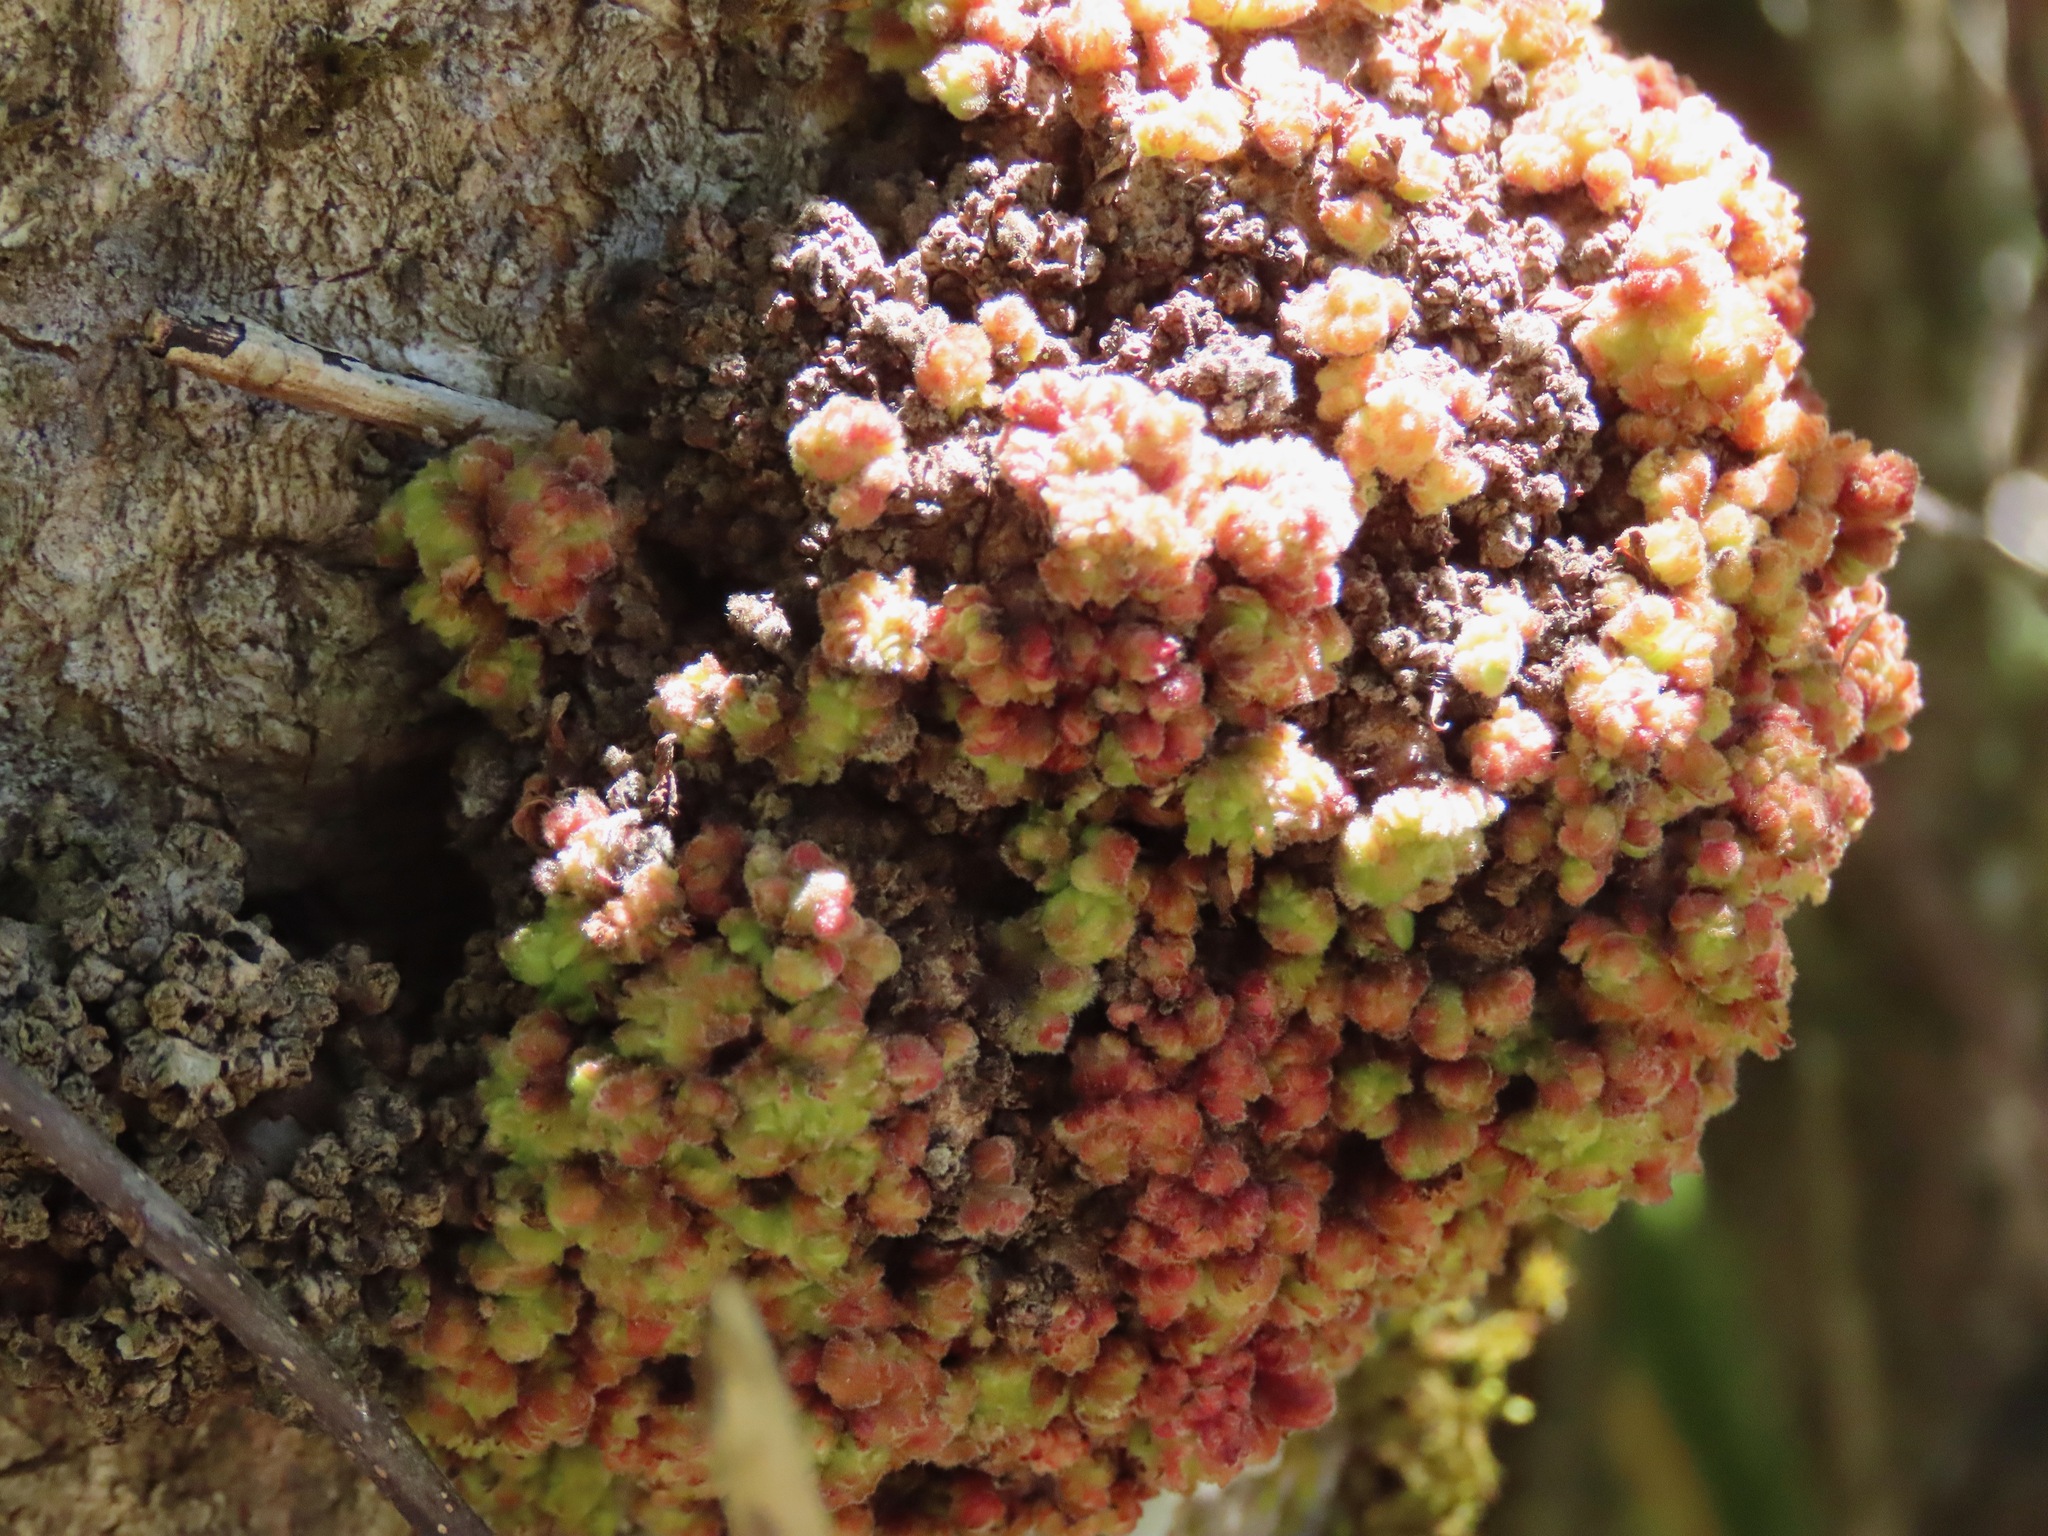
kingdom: Animalia
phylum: Arthropoda
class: Arachnida
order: Trombidiformes
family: Eriophyidae
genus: Aceria
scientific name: Aceria
